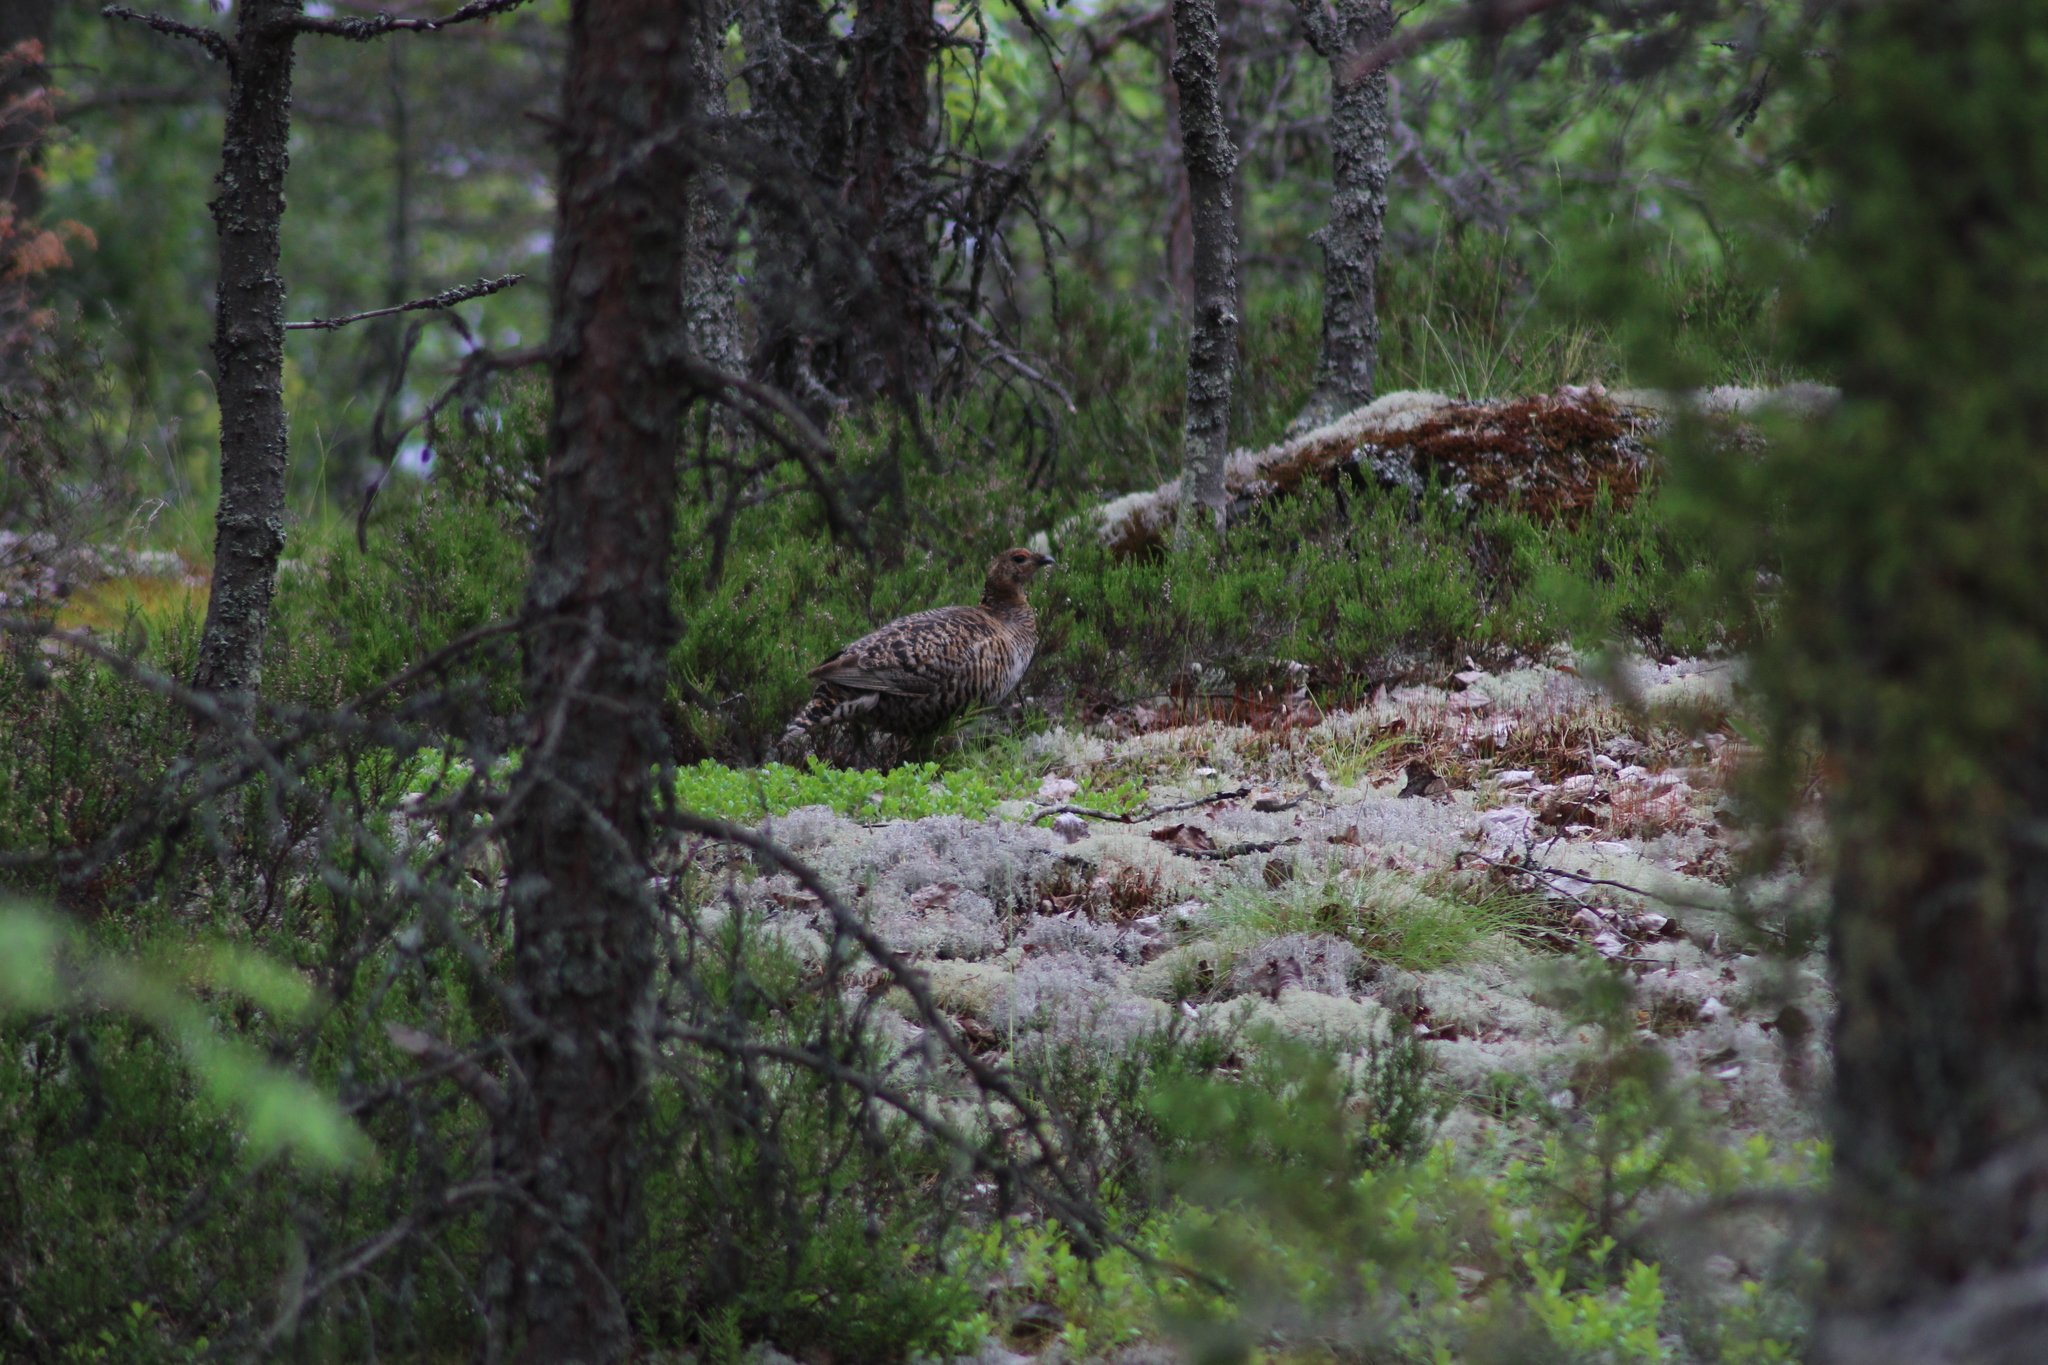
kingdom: Animalia
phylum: Chordata
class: Aves
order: Galliformes
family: Phasianidae
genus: Lyrurus
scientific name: Lyrurus tetrix
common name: Black grouse
